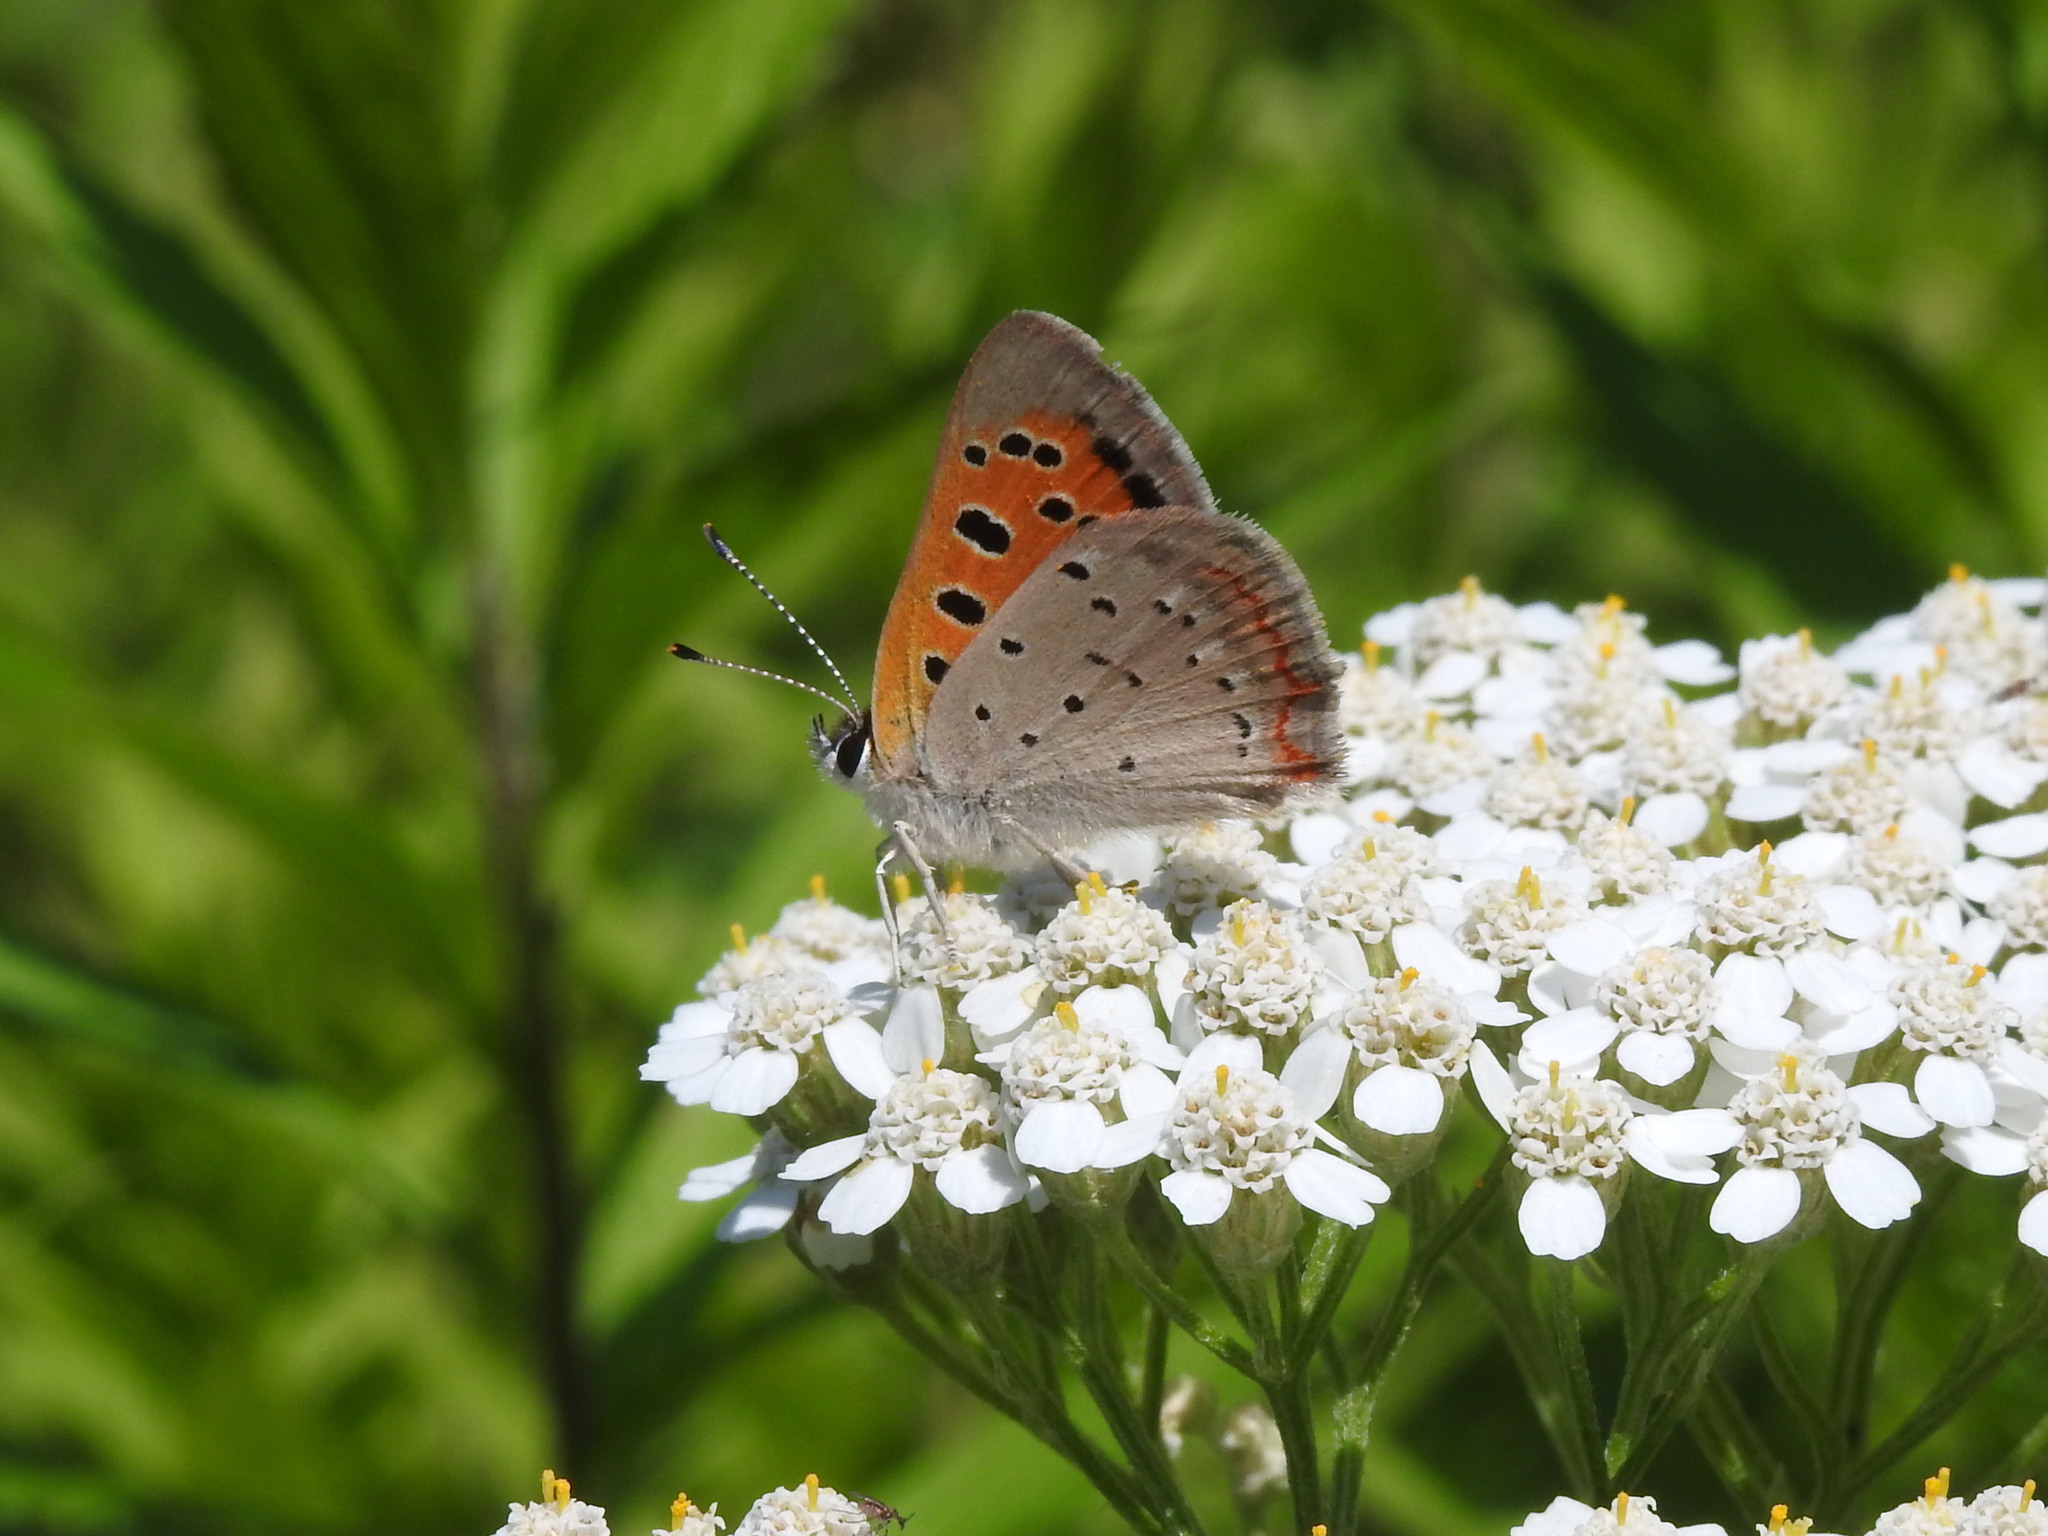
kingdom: Animalia
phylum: Arthropoda
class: Insecta
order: Lepidoptera
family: Lycaenidae
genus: Lycaena
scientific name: Lycaena hypophlaeas
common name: American copper
